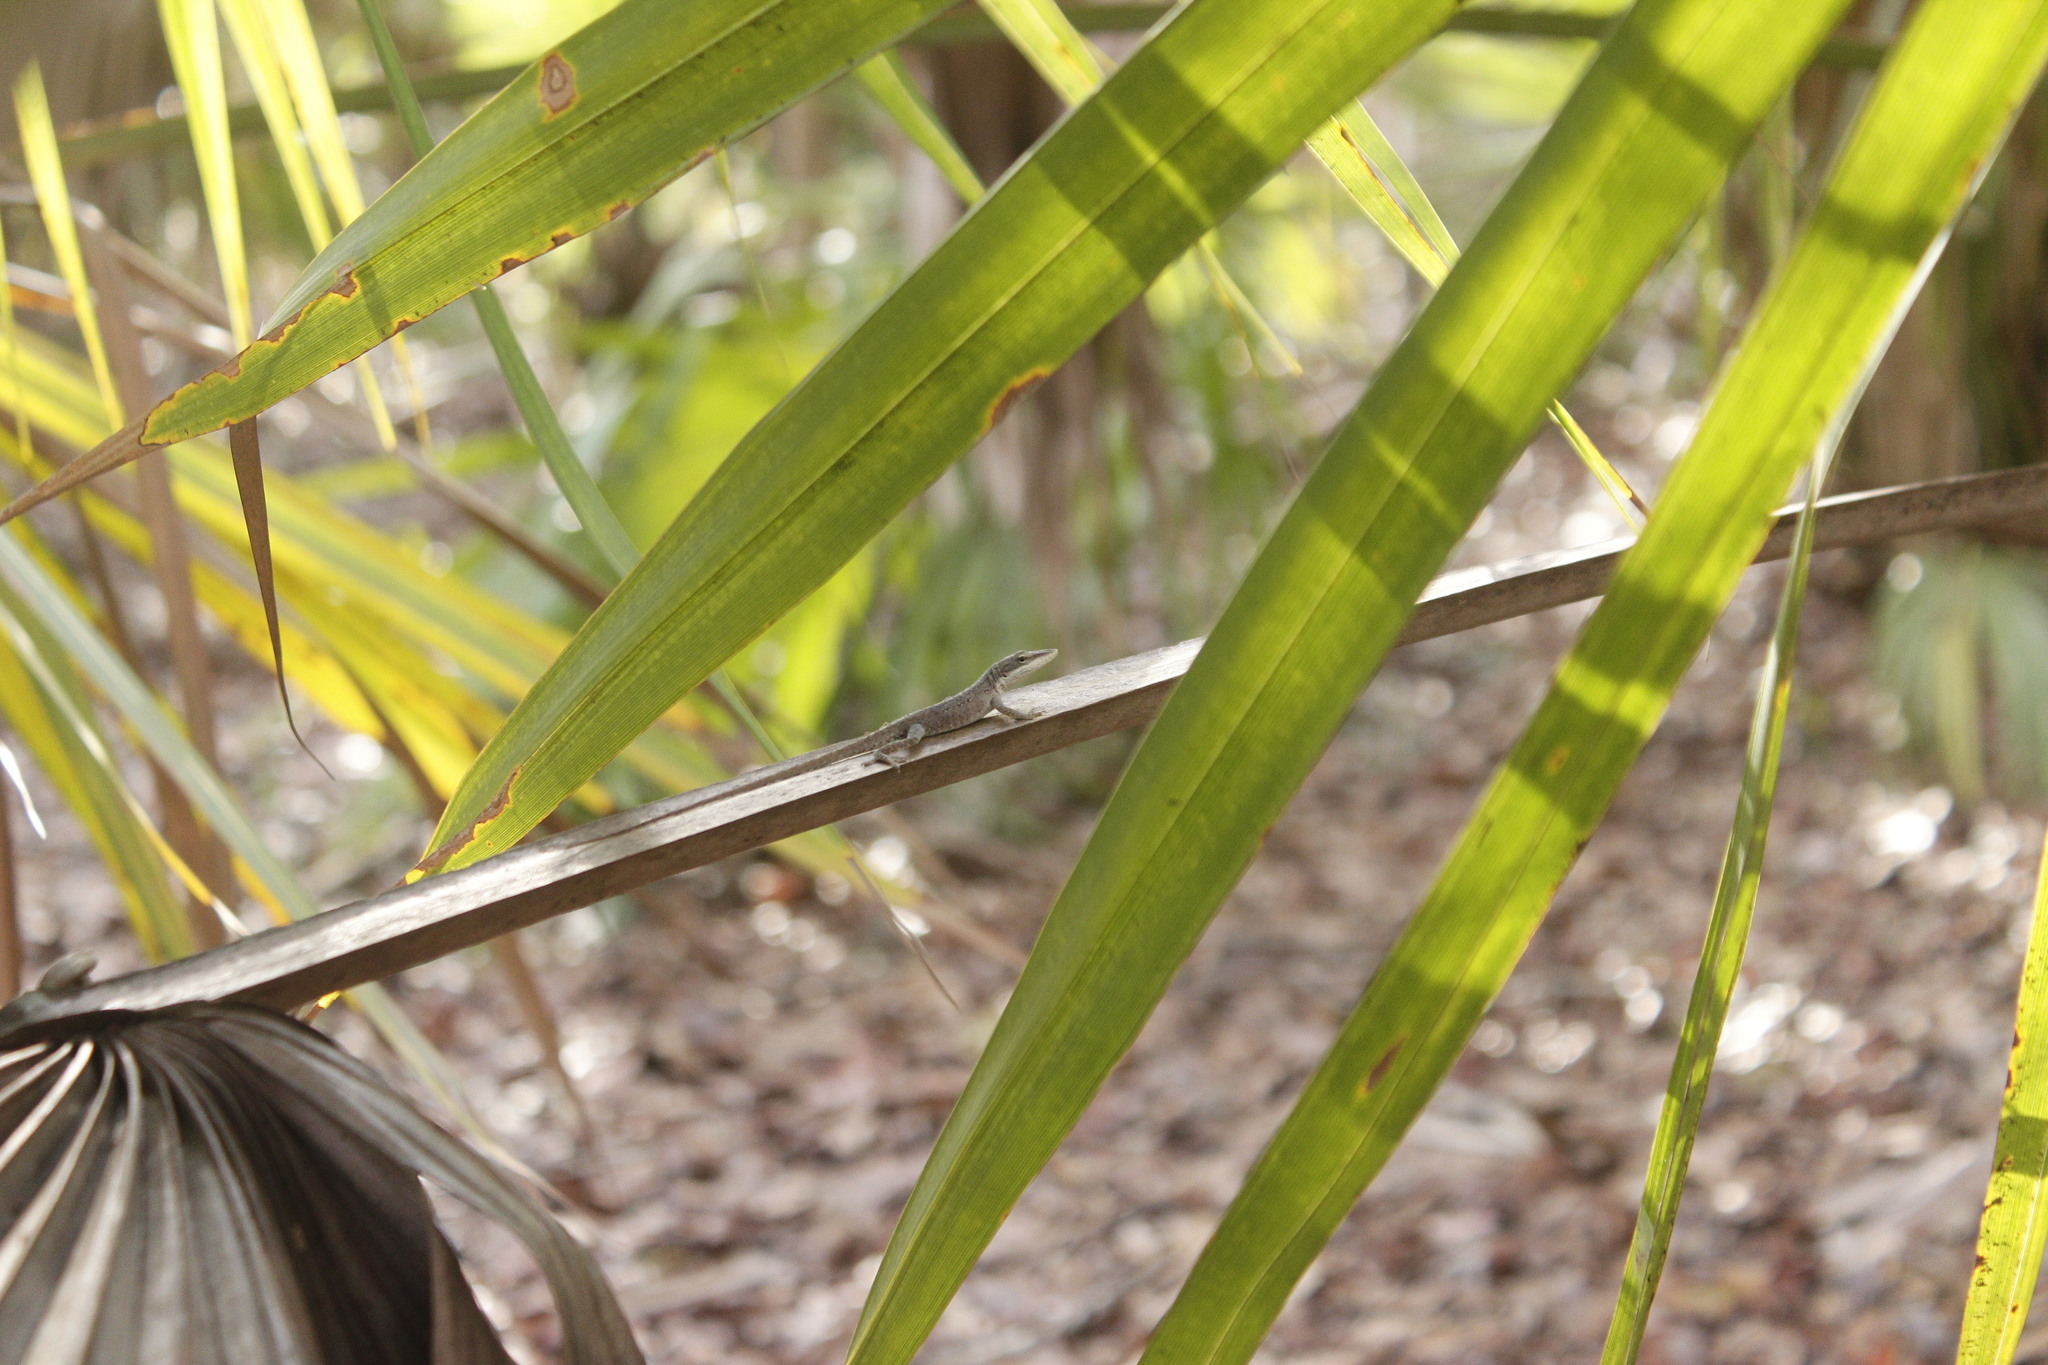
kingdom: Animalia
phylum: Chordata
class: Squamata
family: Dactyloidae
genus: Anolis
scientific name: Anolis carolinensis
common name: Green anole
